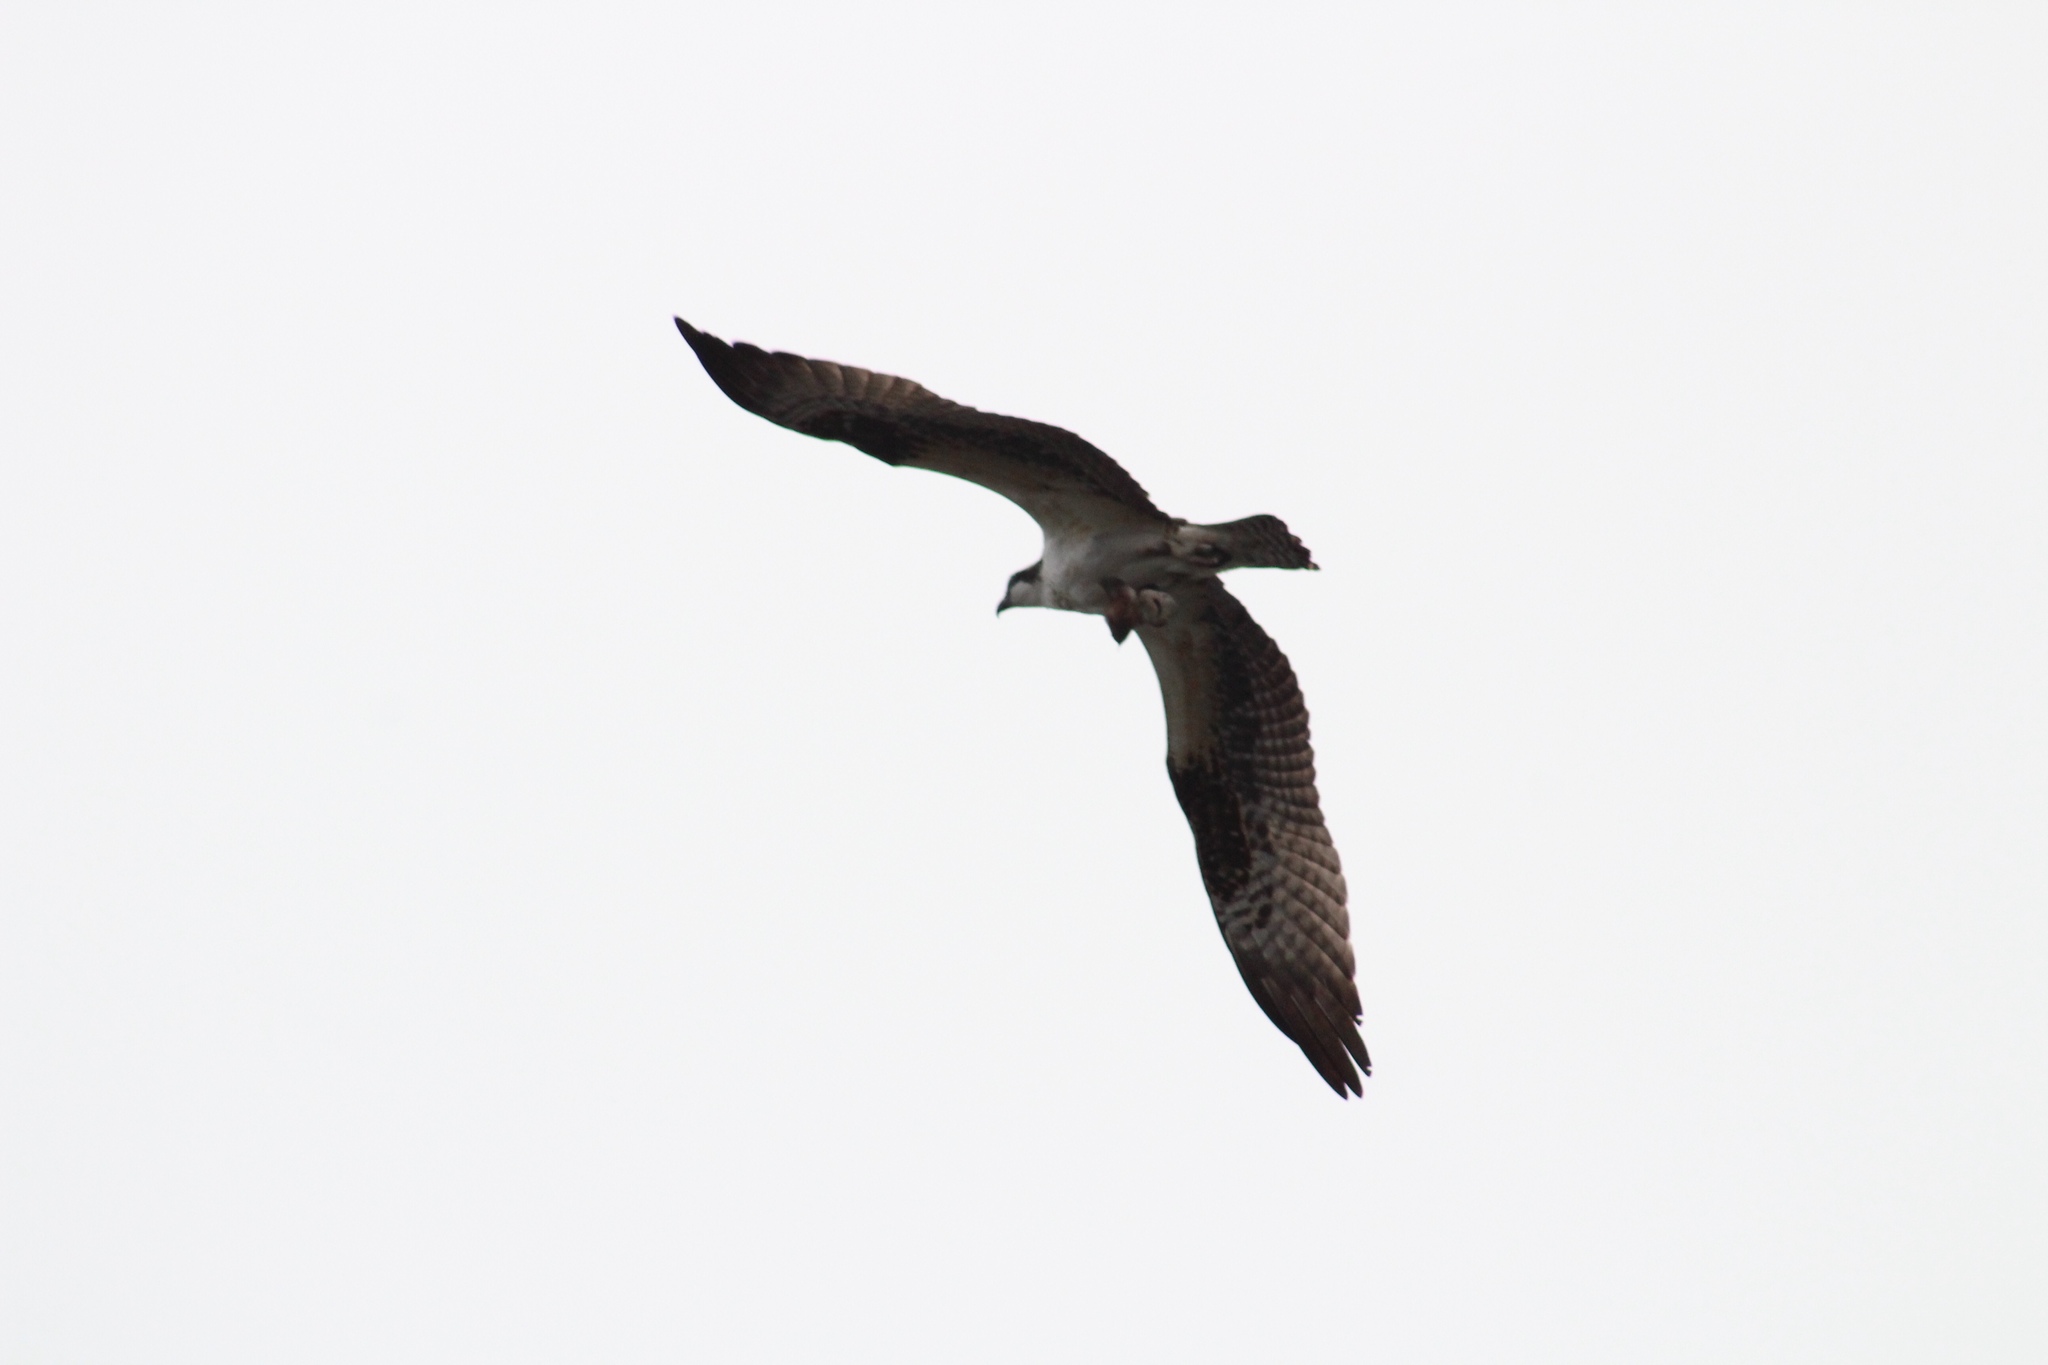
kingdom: Animalia
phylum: Chordata
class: Aves
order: Accipitriformes
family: Pandionidae
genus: Pandion
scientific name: Pandion haliaetus
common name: Osprey
